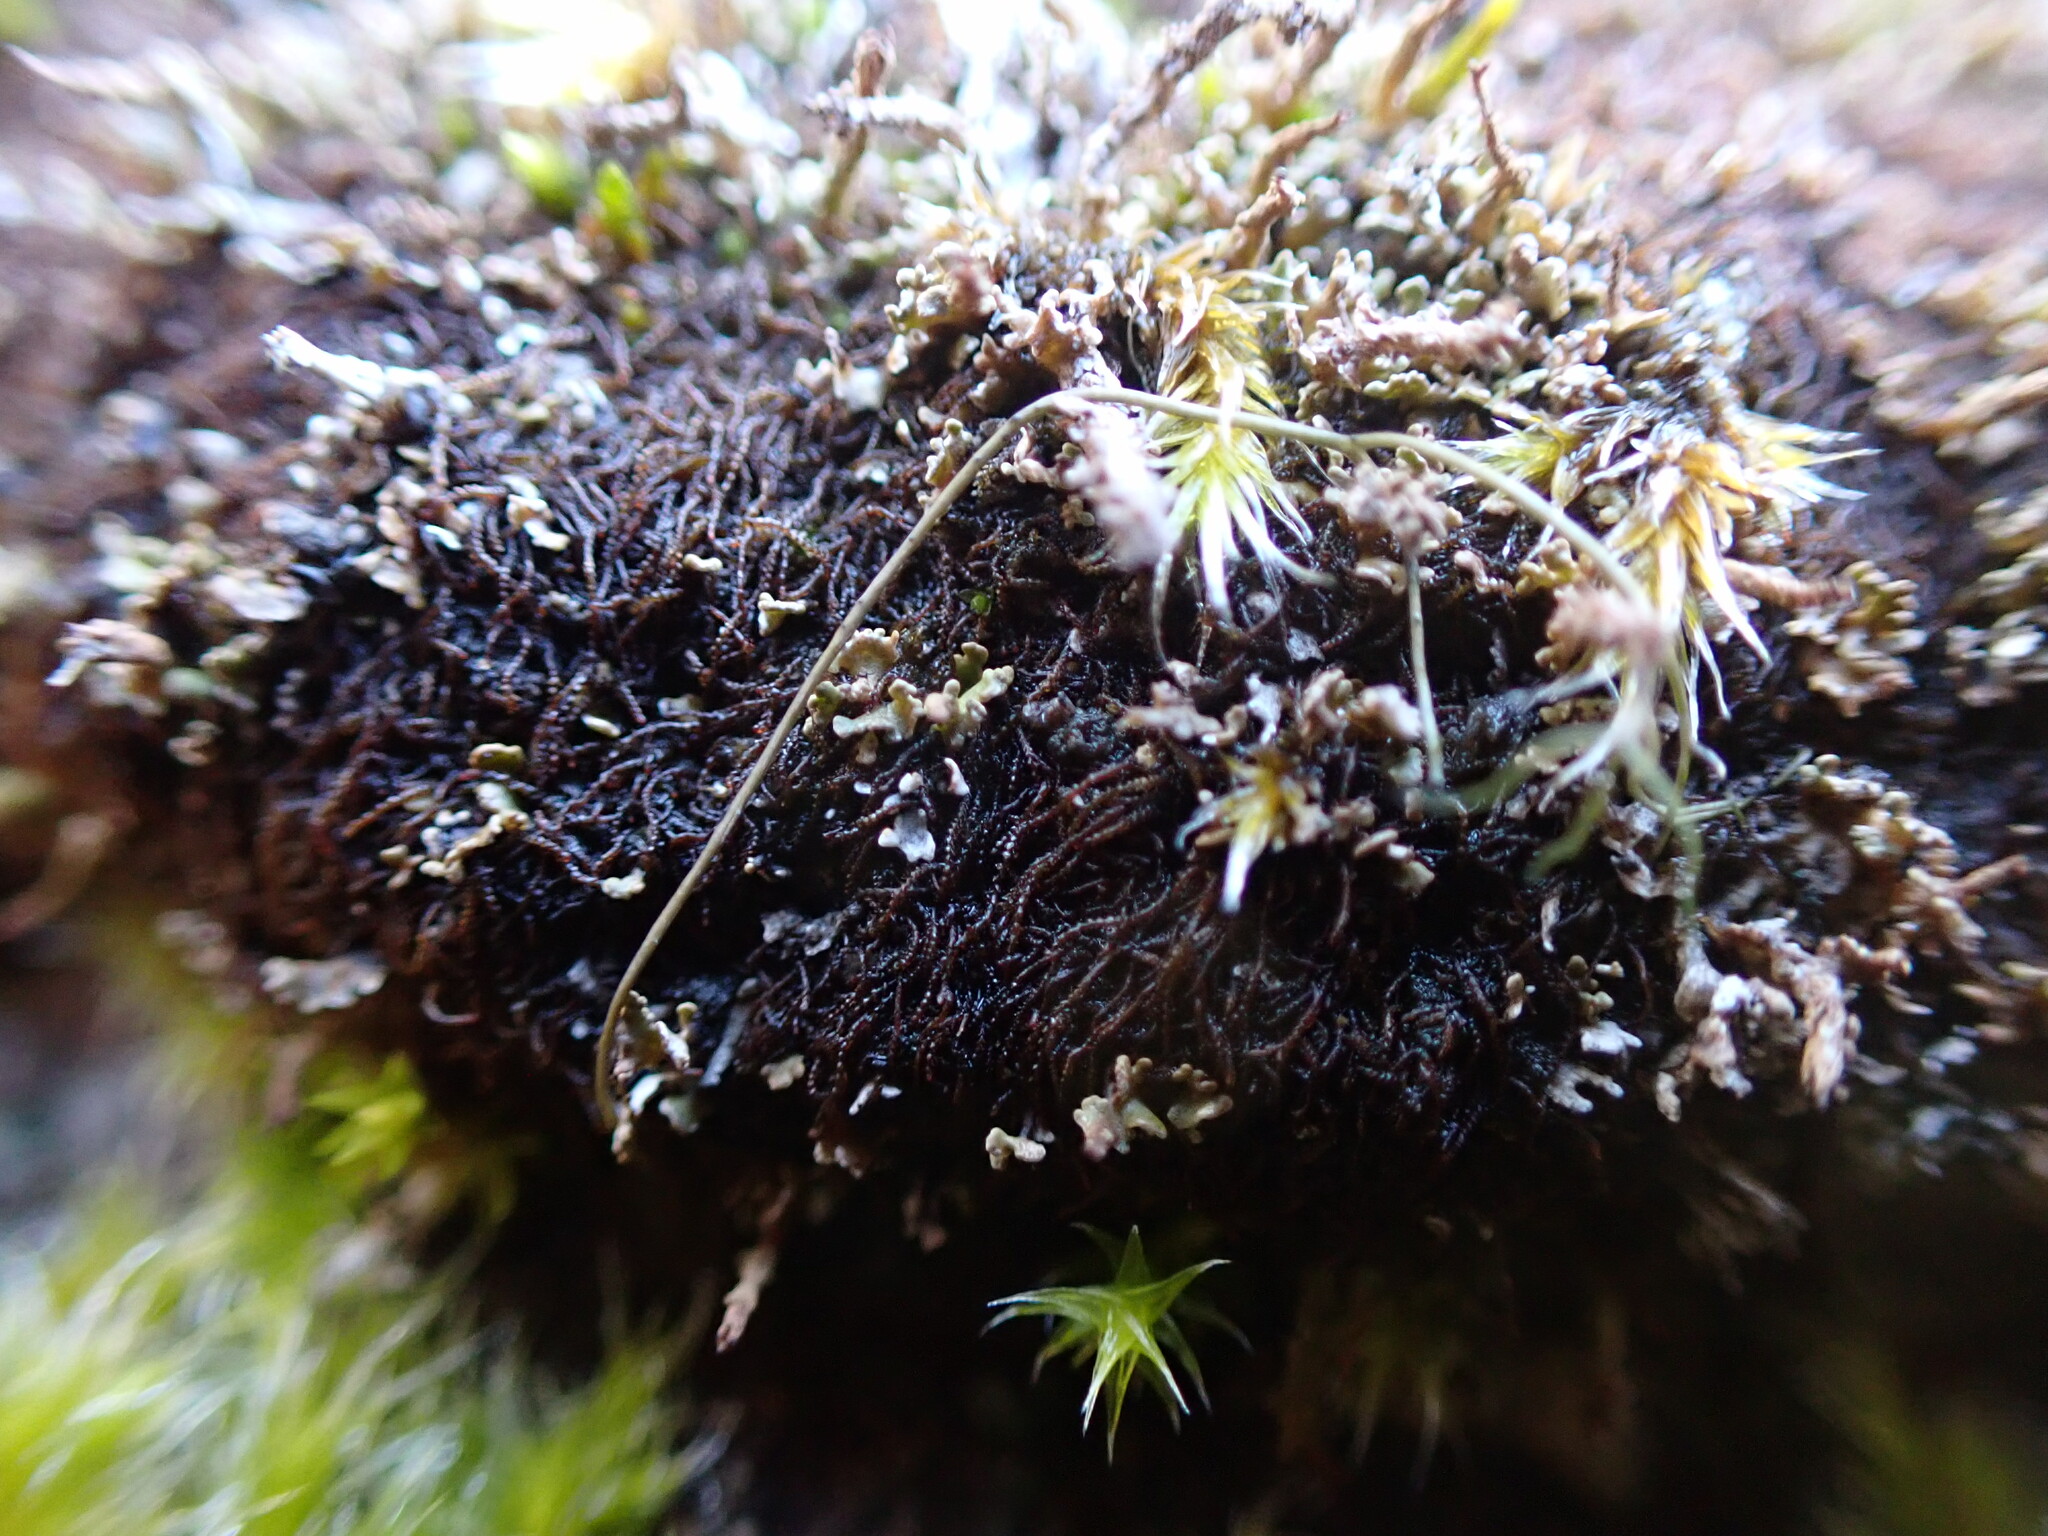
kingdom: Plantae
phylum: Marchantiophyta
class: Jungermanniopsida
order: Jungermanniales
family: Cephaloziellaceae
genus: Cephaloziella
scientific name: Cephaloziella divaricata
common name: Spreading threadwort
